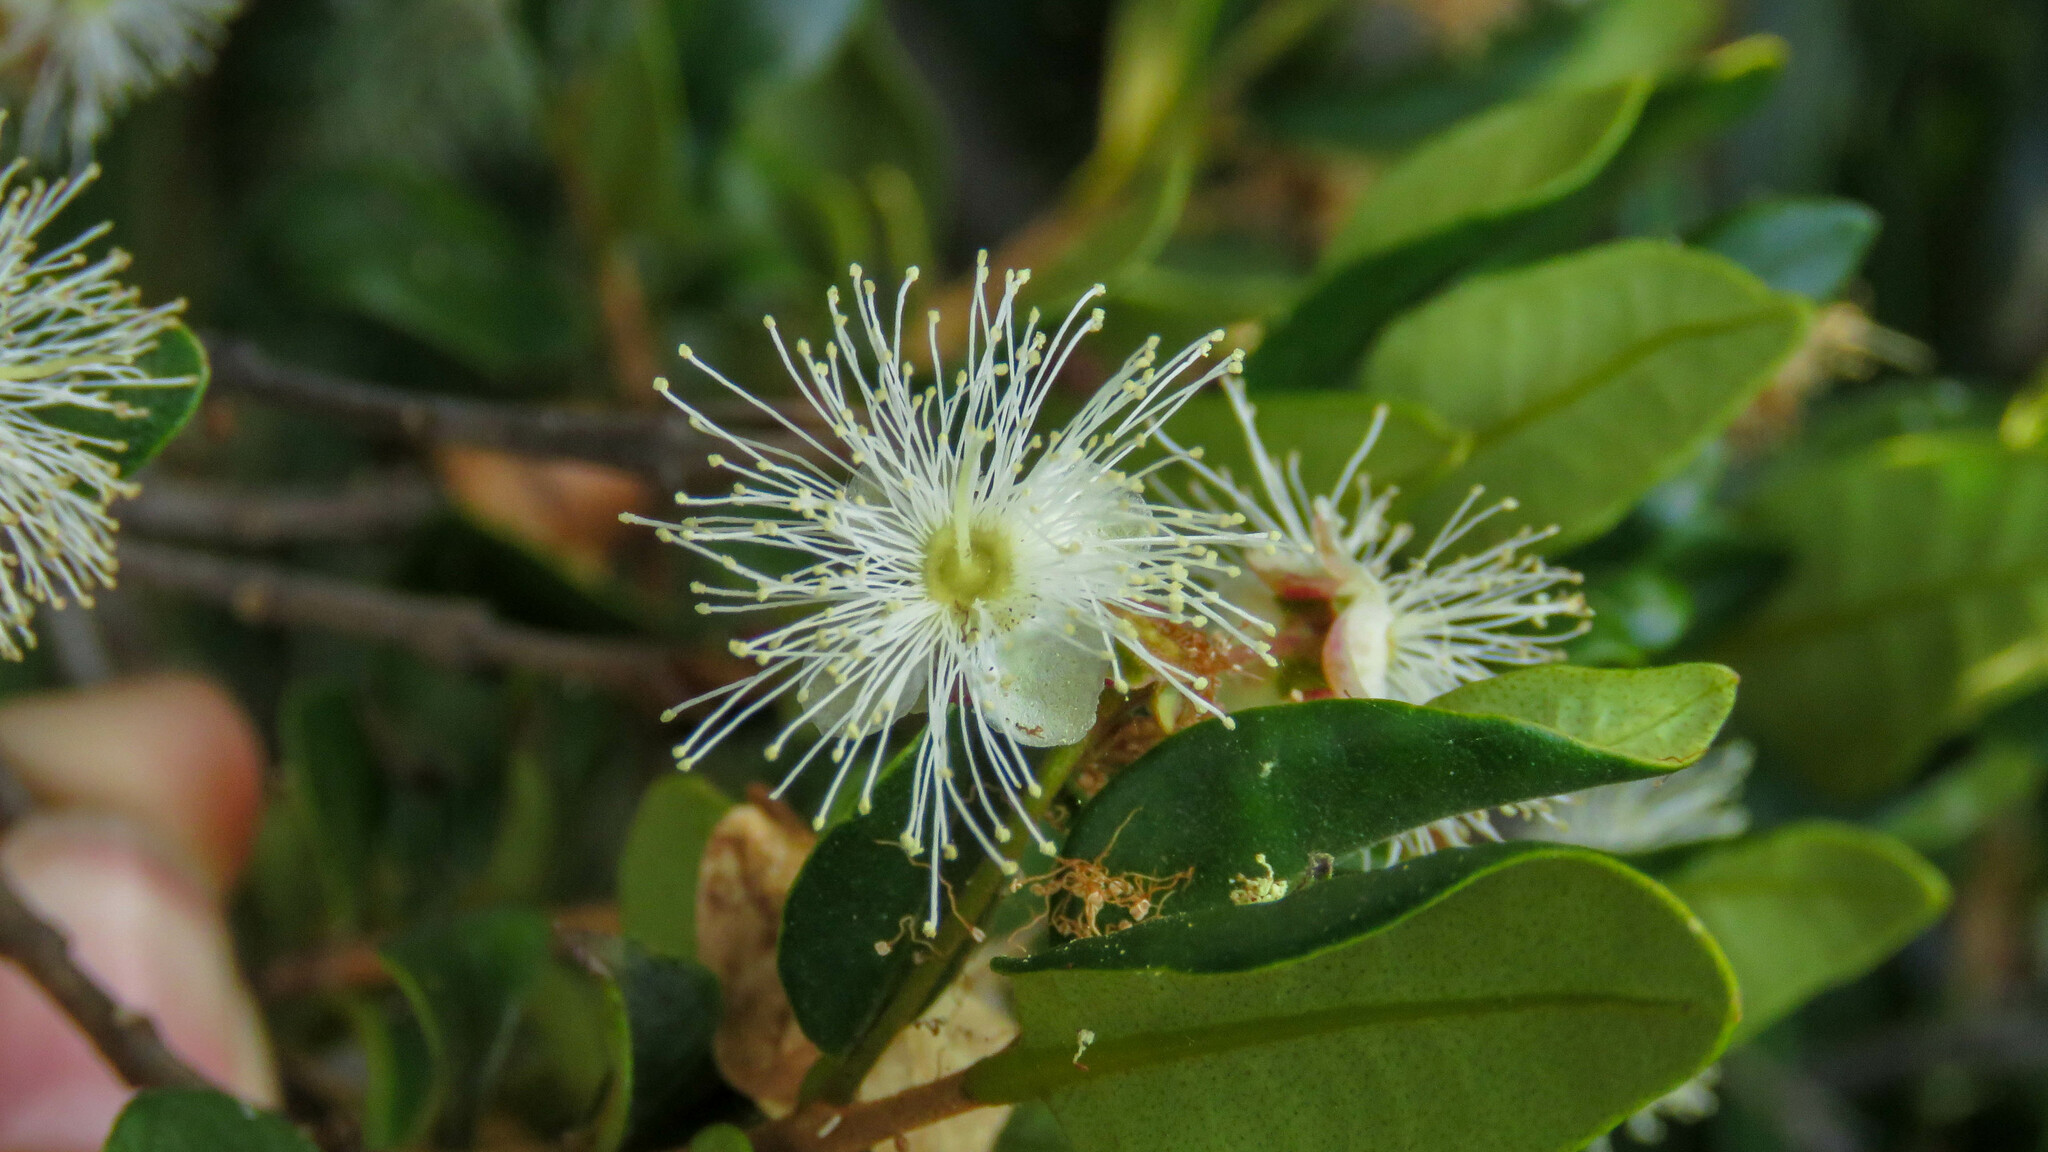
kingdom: Plantae
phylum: Tracheophyta
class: Magnoliopsida
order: Myrtales
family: Myrtaceae
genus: Myrceugenia
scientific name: Myrceugenia exsucca
